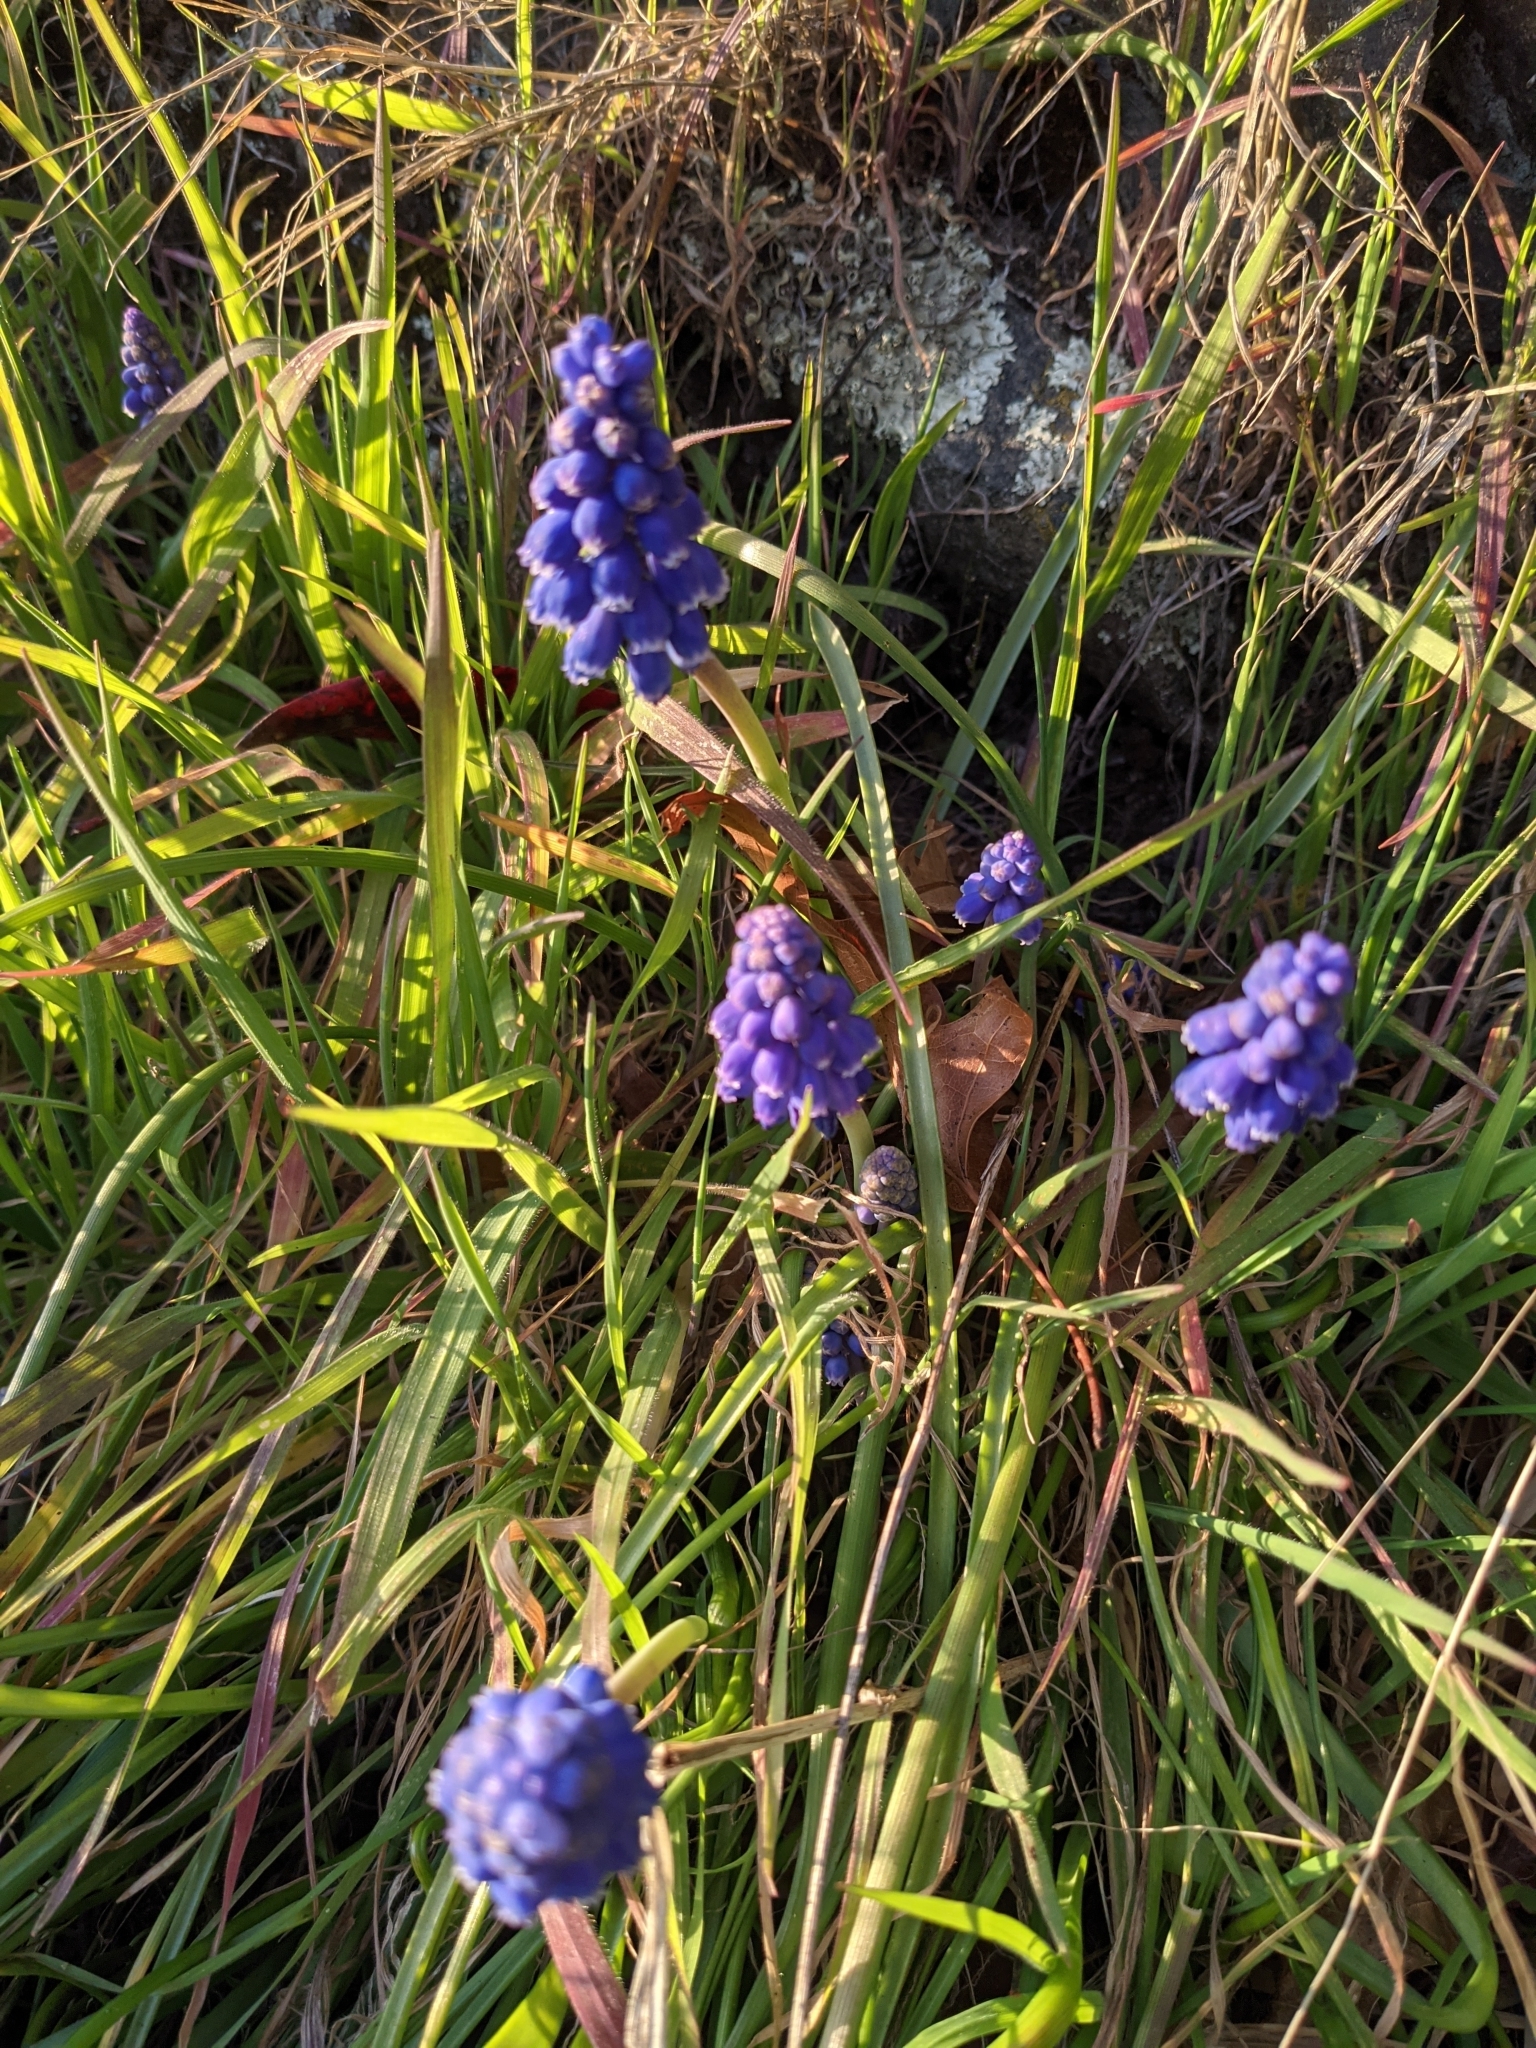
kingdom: Plantae
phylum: Tracheophyta
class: Liliopsida
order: Asparagales
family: Asparagaceae
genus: Muscari
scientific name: Muscari neglectum
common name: Grape-hyacinth
